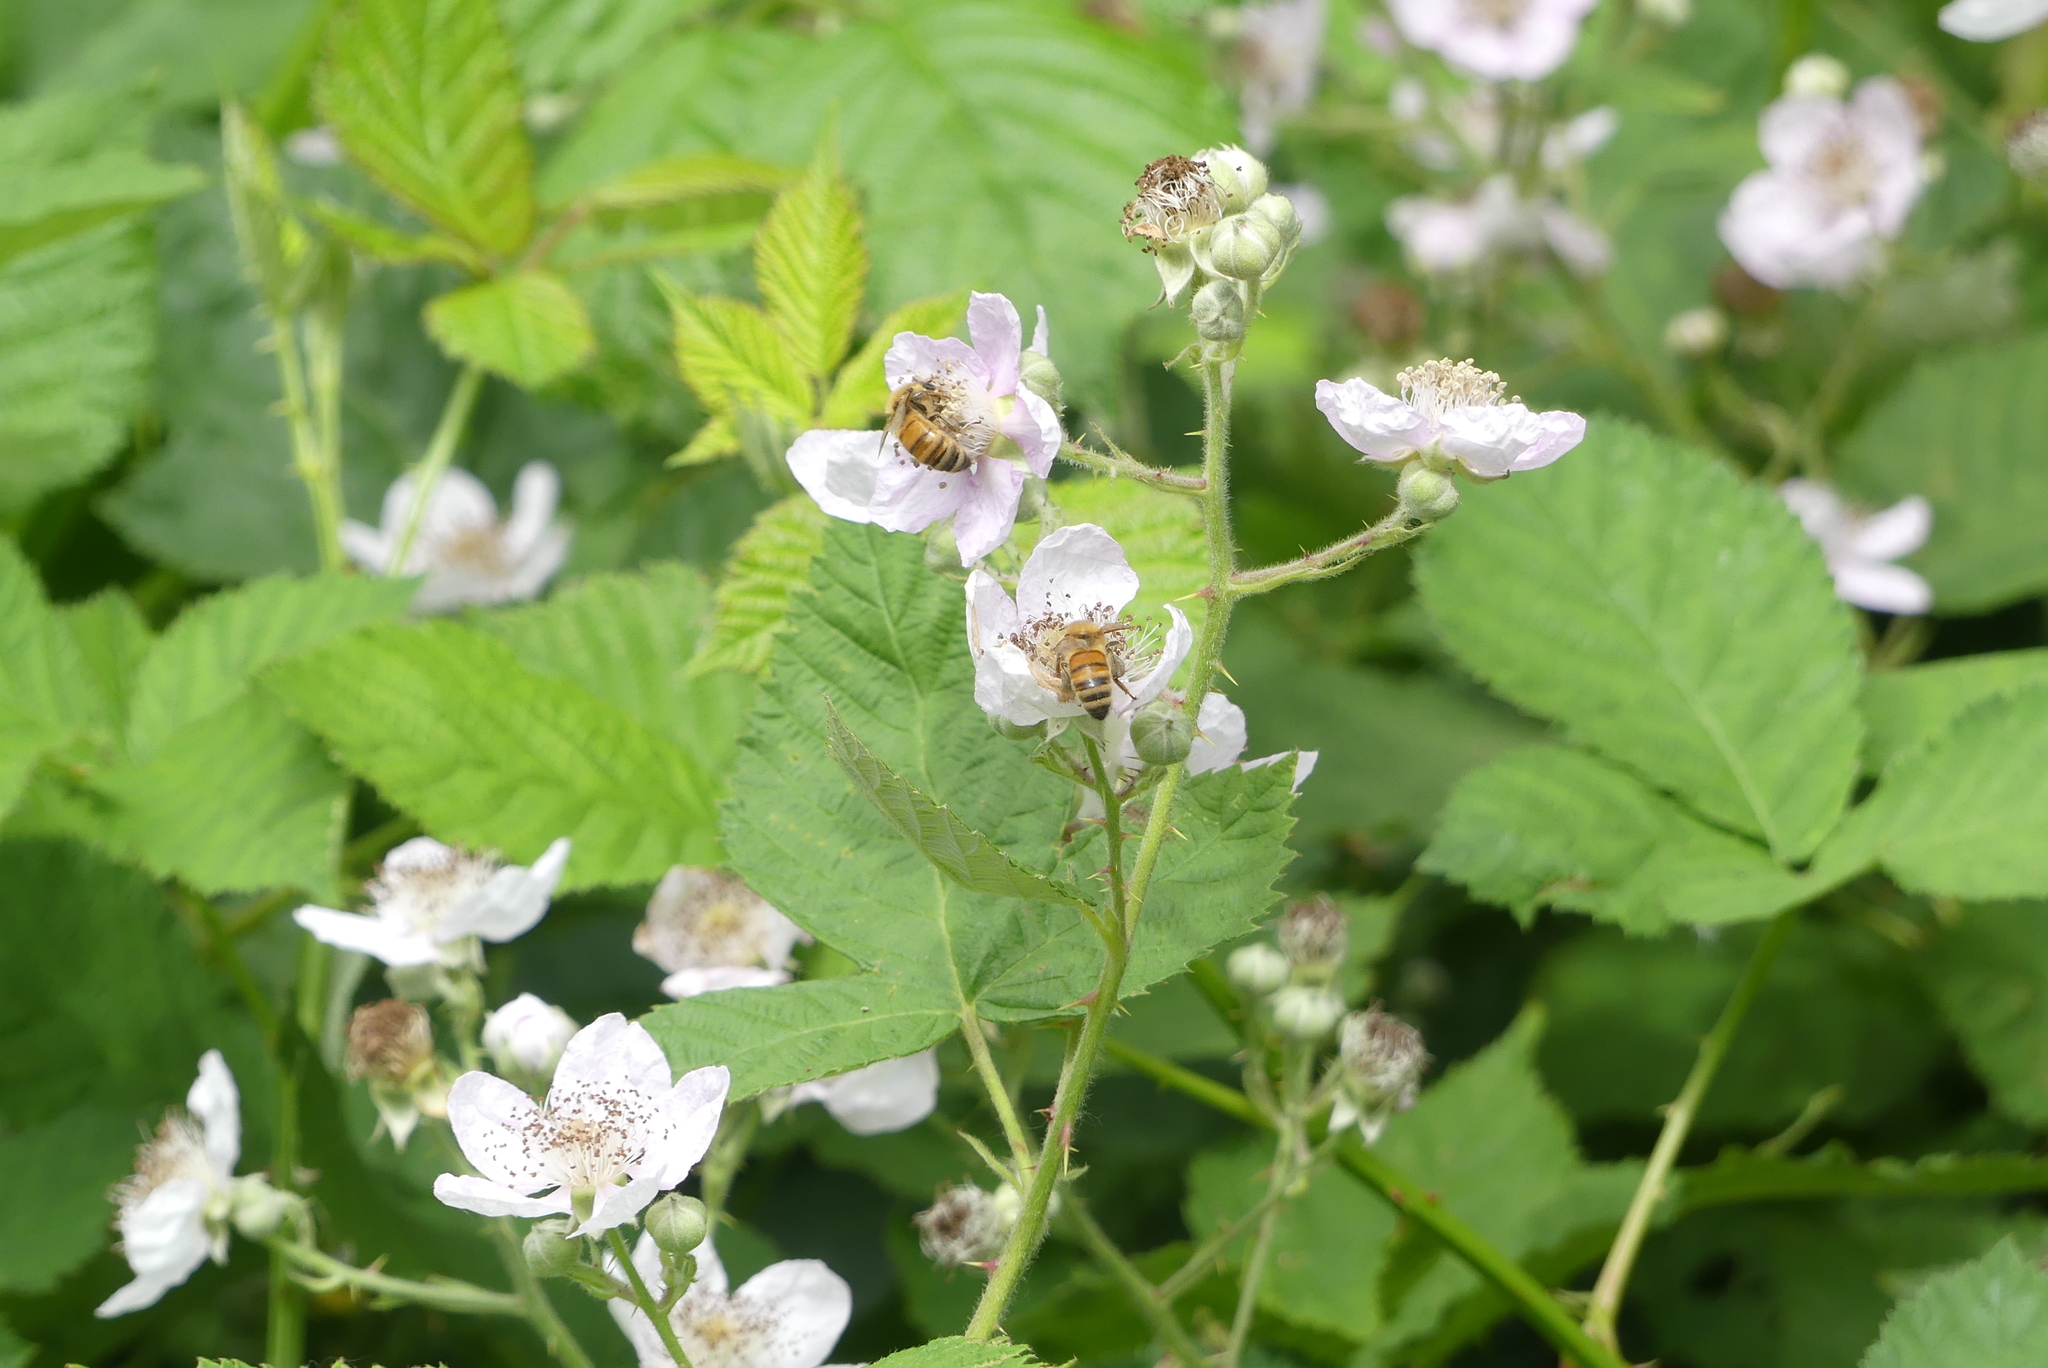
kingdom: Animalia
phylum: Arthropoda
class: Insecta
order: Hymenoptera
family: Apidae
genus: Apis
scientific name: Apis mellifera
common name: Honey bee
